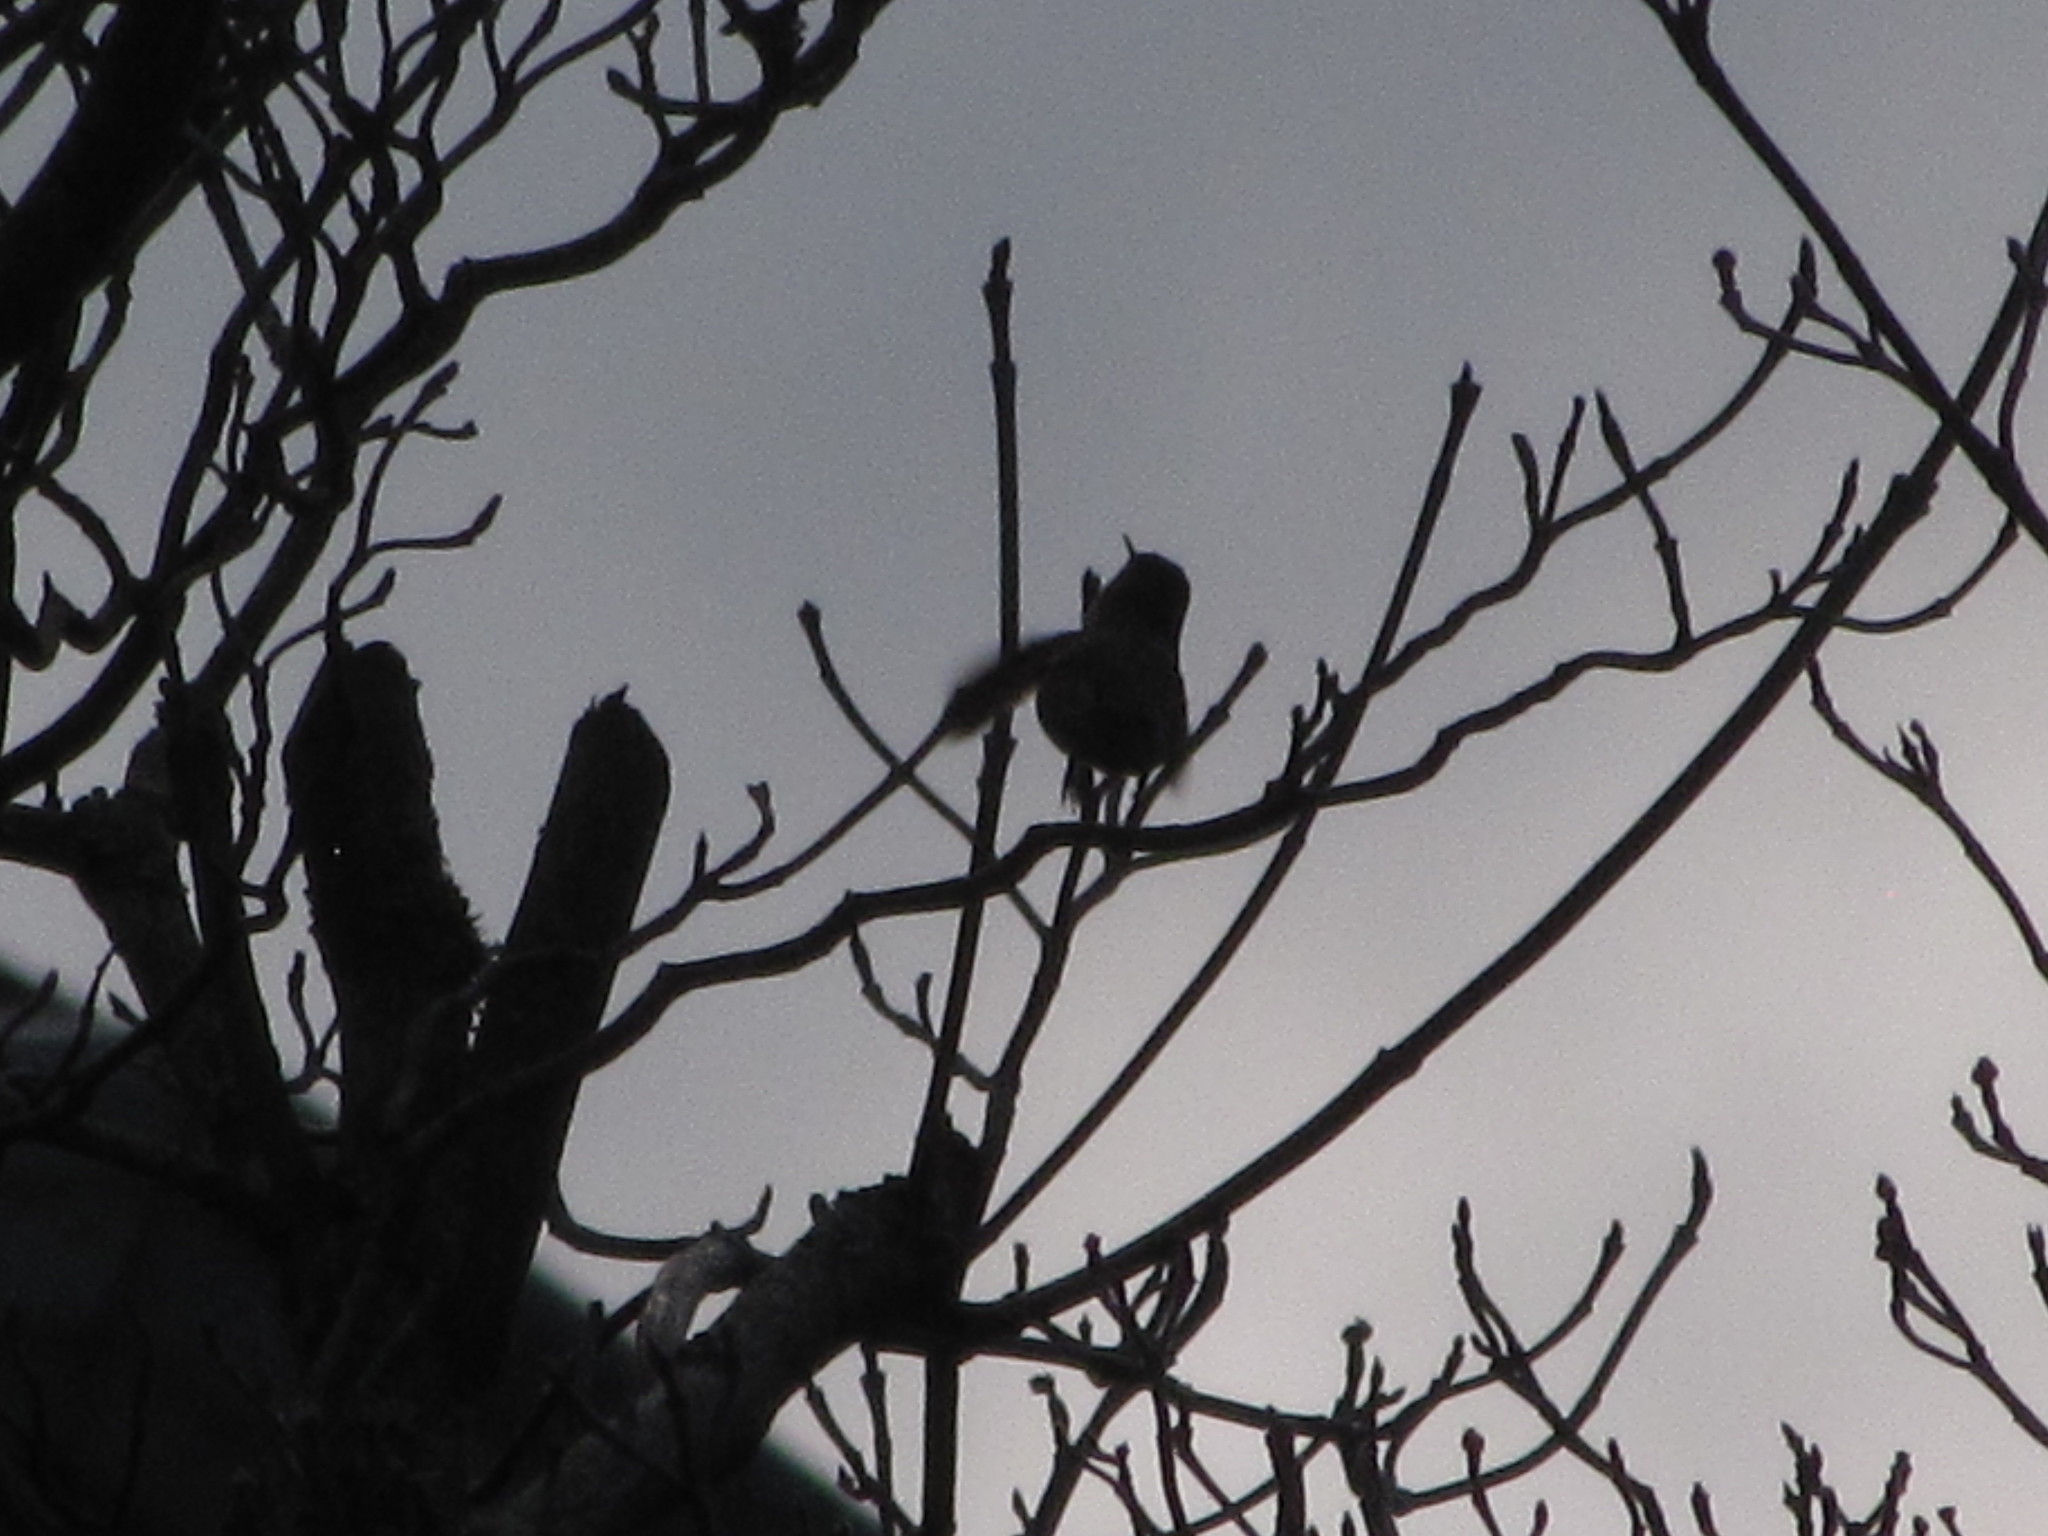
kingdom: Animalia
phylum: Chordata
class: Aves
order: Apodiformes
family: Trochilidae
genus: Calypte
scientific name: Calypte anna
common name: Anna's hummingbird
